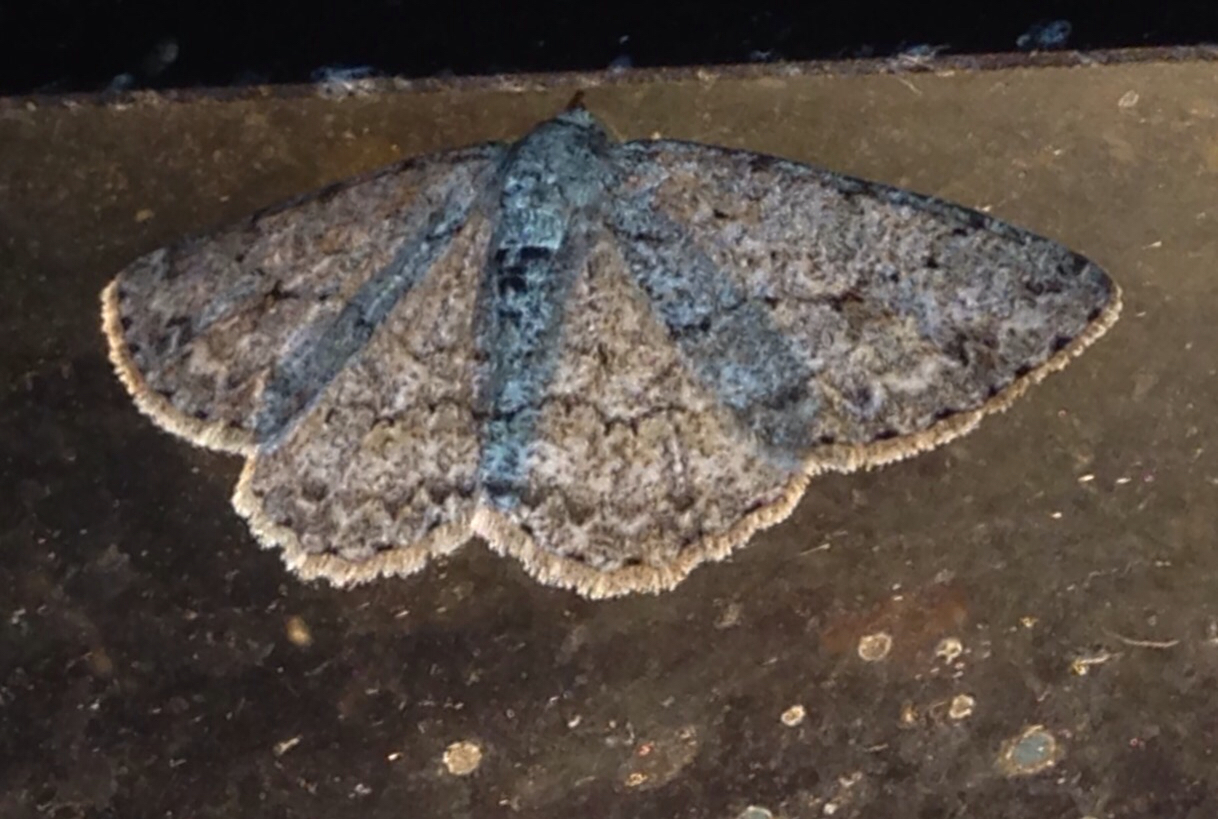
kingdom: Animalia
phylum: Arthropoda
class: Insecta
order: Lepidoptera
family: Geometridae
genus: Ectropis
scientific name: Ectropis crepuscularia
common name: Engrailed
